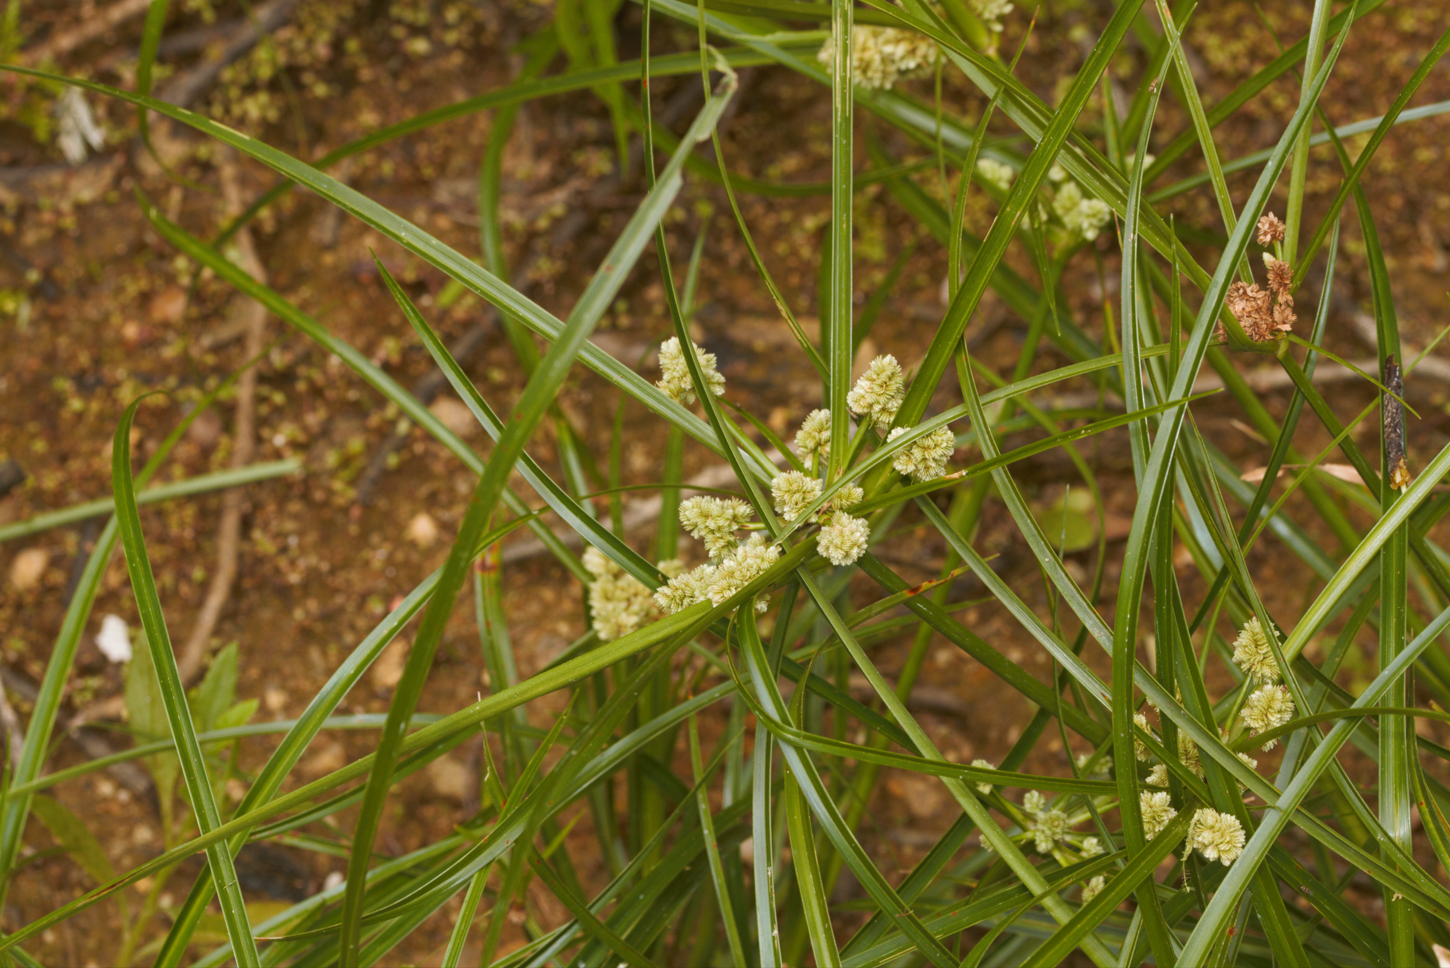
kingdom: Plantae
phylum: Tracheophyta
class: Liliopsida
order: Poales
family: Cyperaceae
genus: Cyperus
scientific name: Cyperus luzulae
